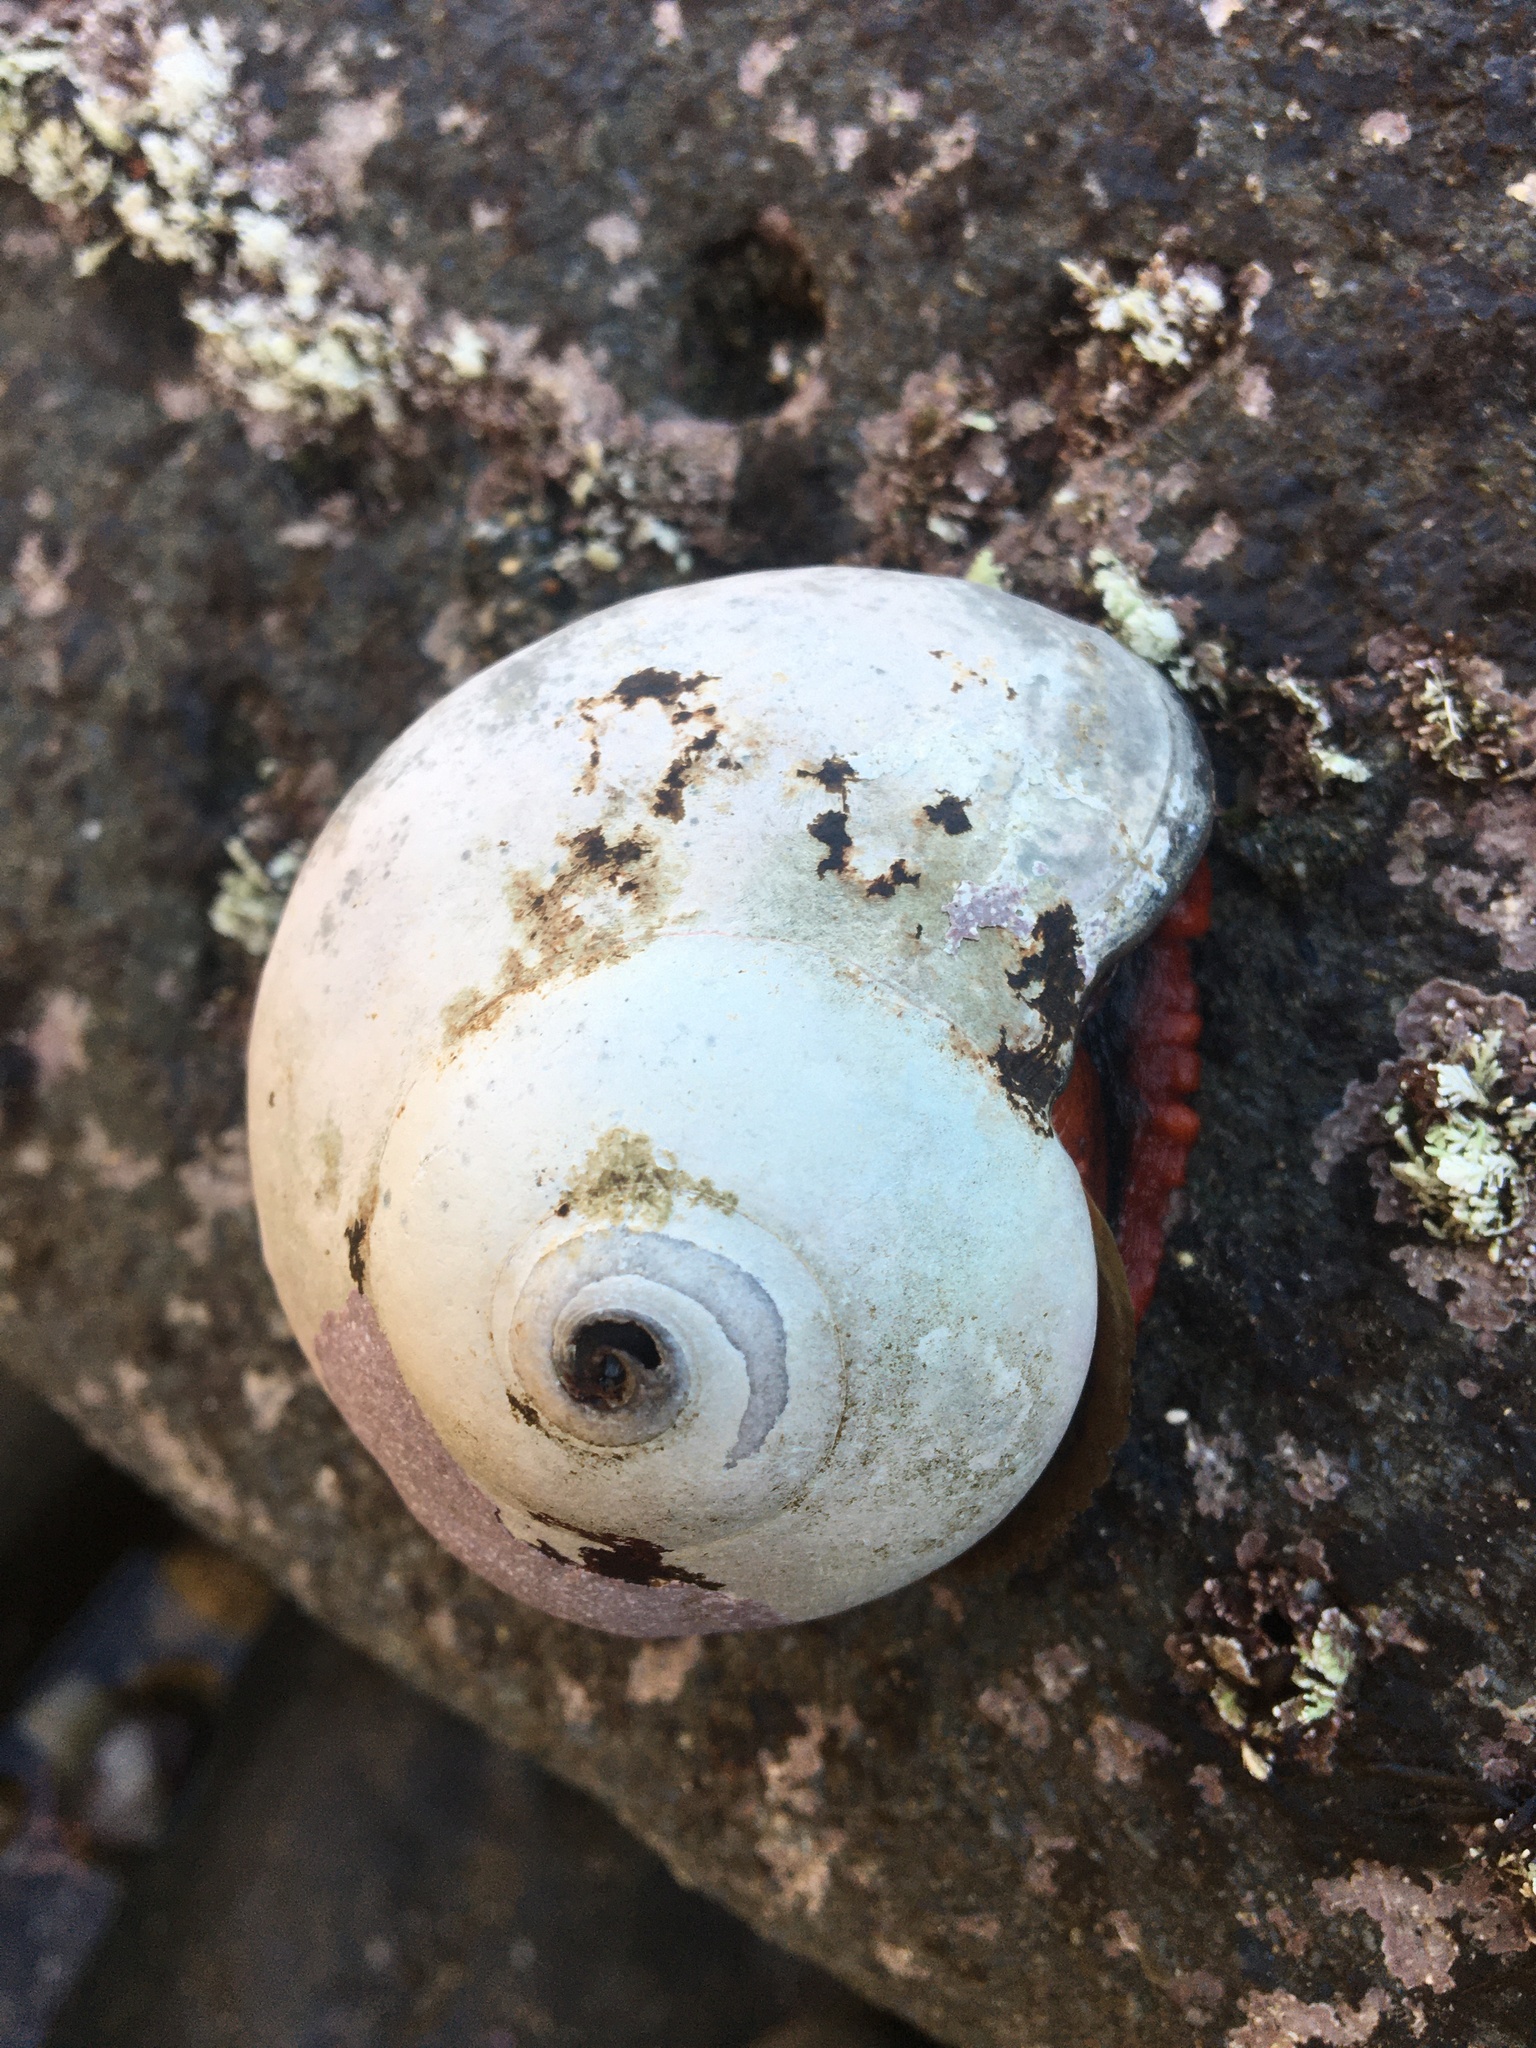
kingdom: Animalia
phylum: Mollusca
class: Gastropoda
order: Trochida
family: Tegulidae
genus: Norrisia
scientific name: Norrisia norrisii
